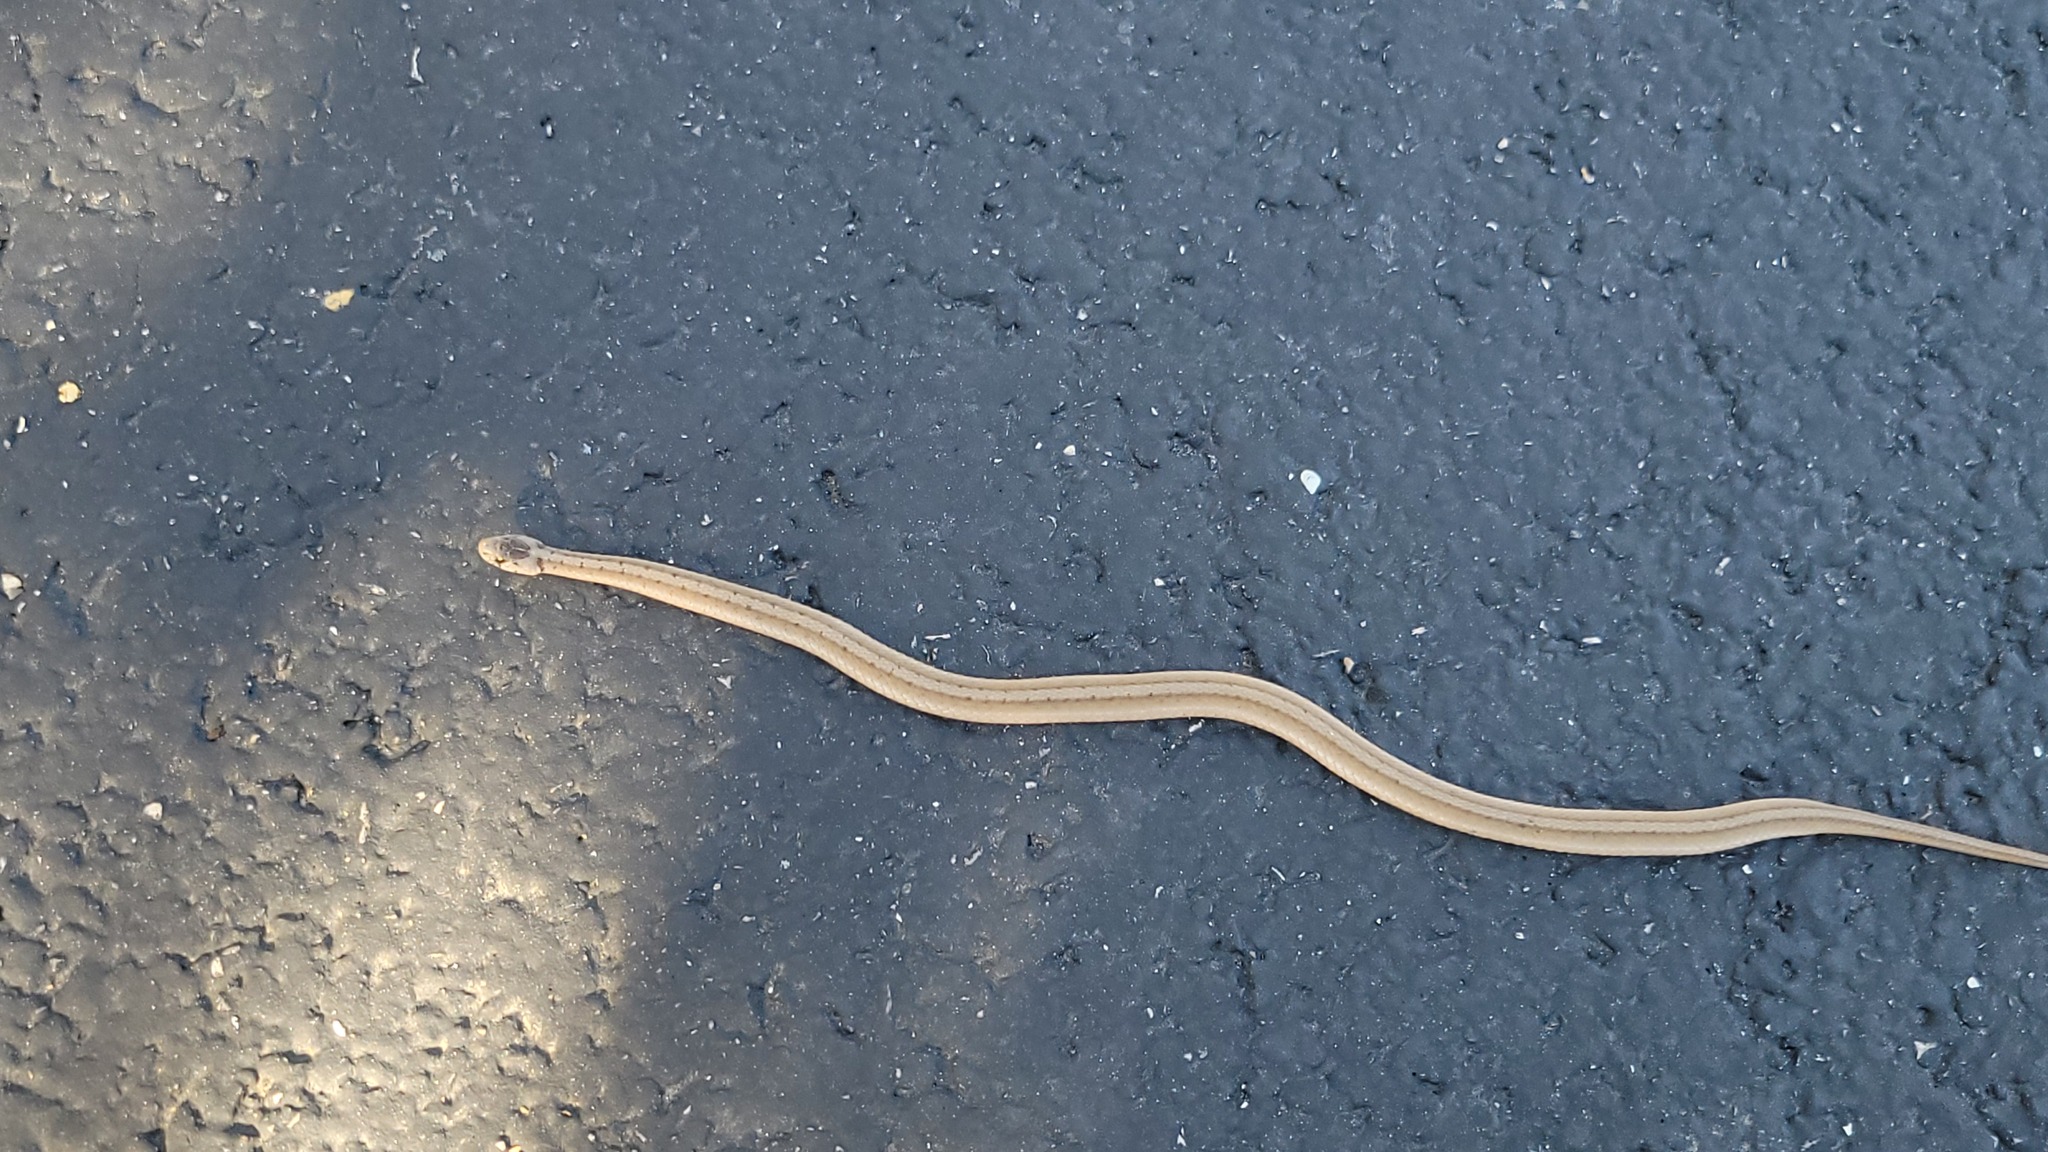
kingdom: Animalia
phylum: Chordata
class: Squamata
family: Colubridae
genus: Storeria
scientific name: Storeria dekayi
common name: (dekay’s) brown snake
